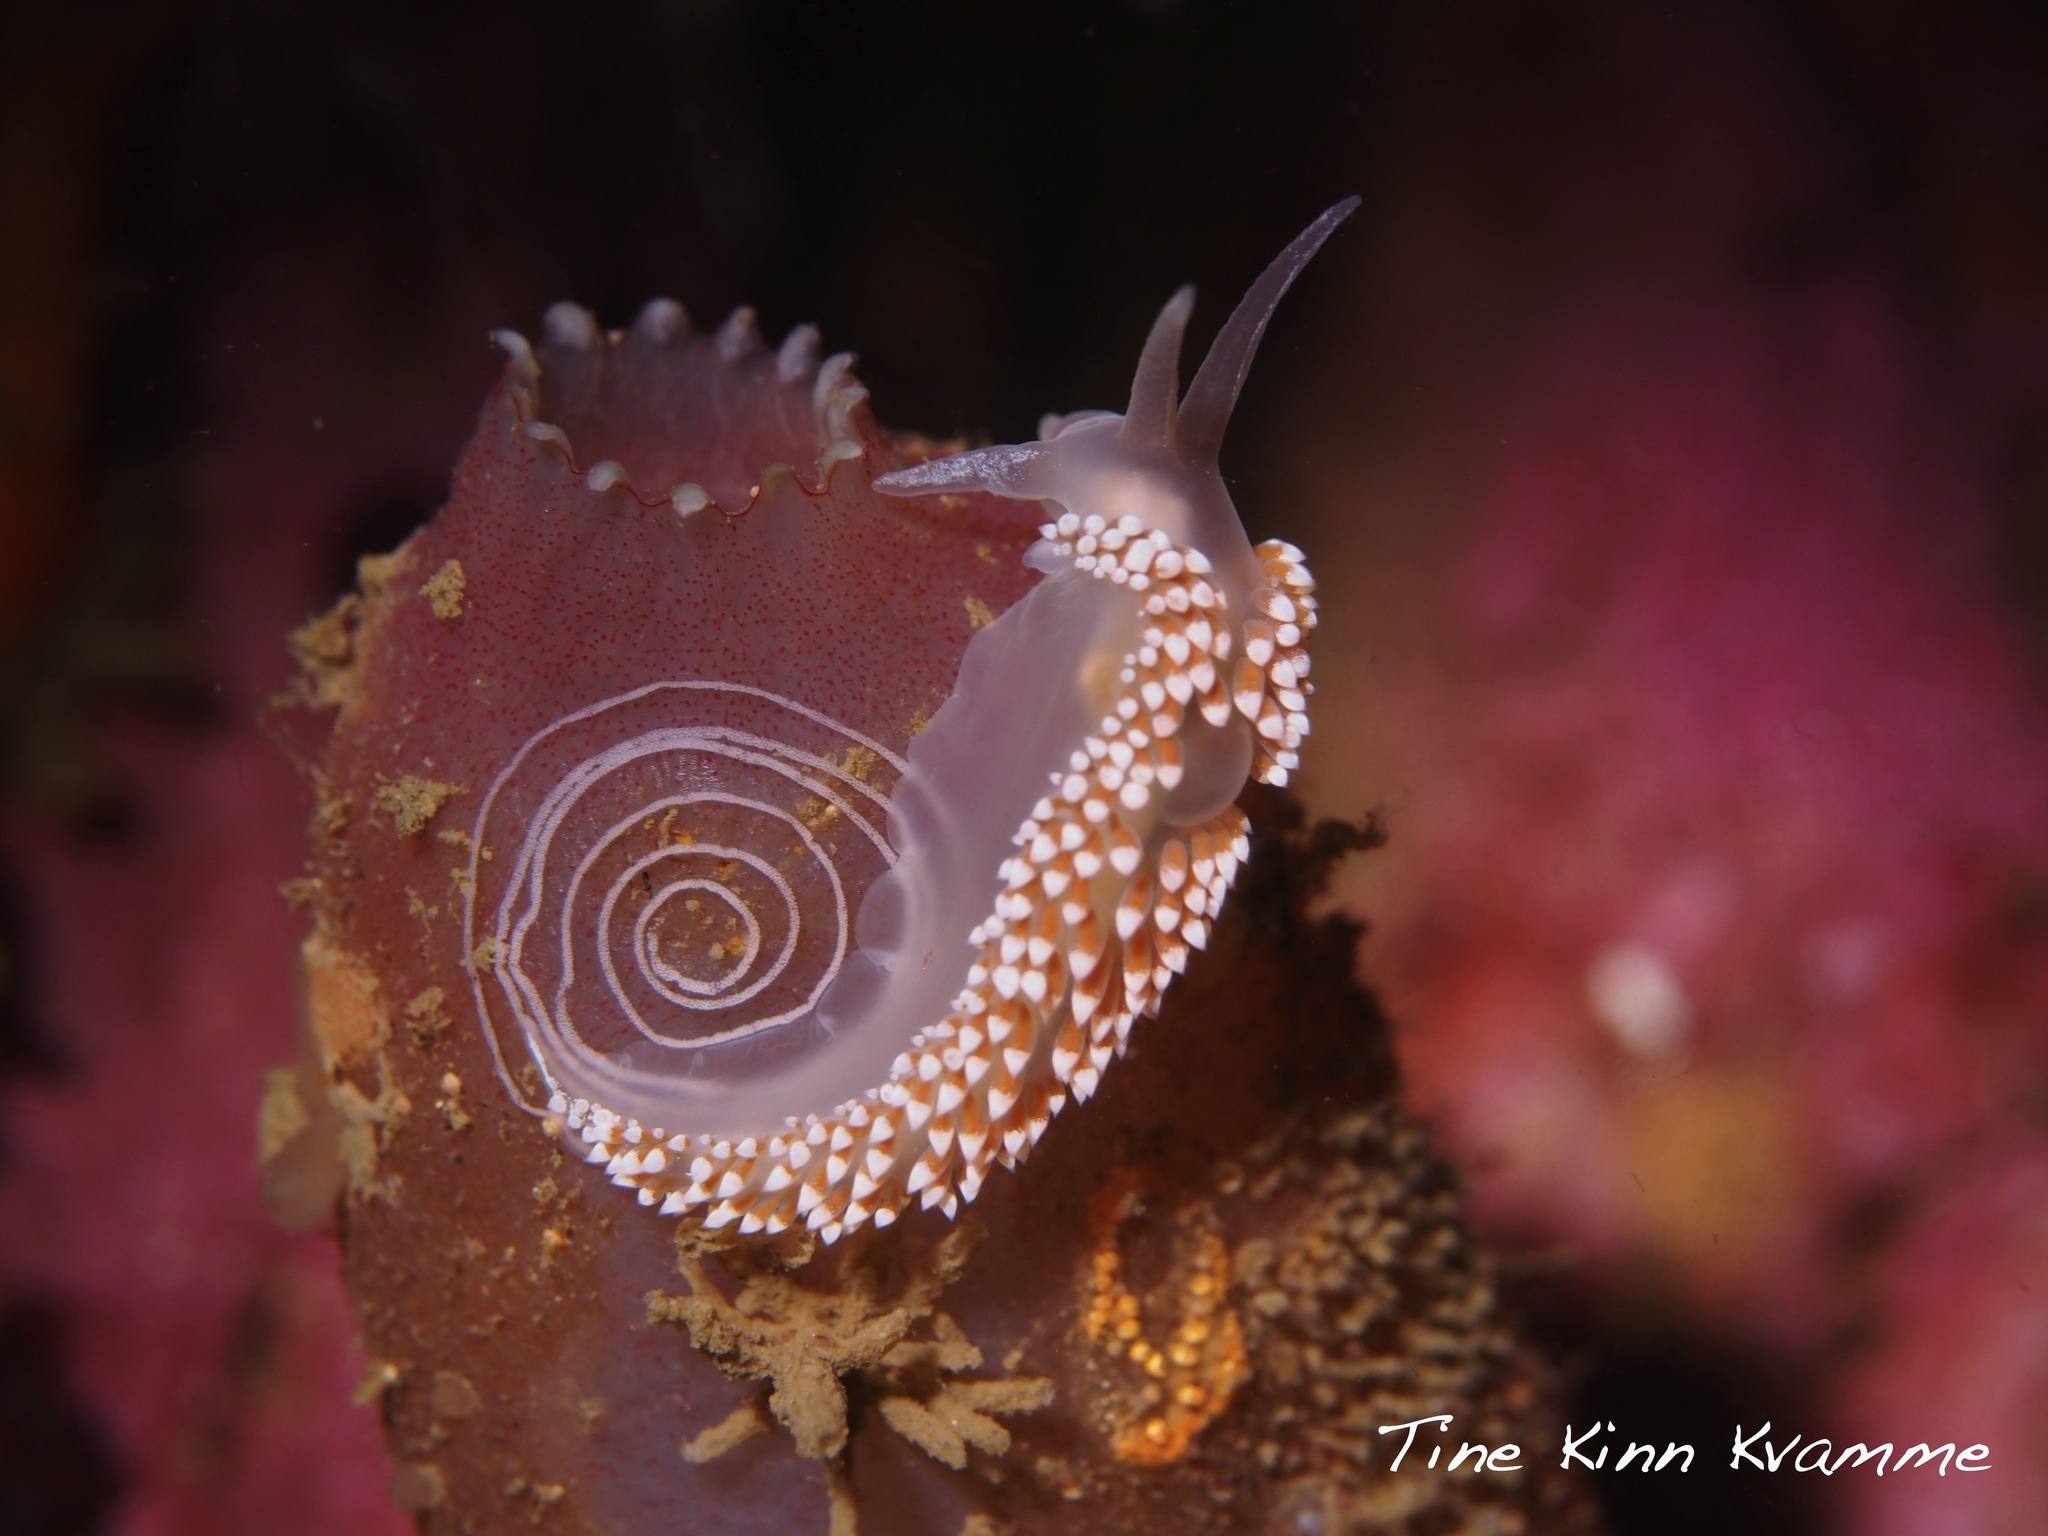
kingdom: Animalia
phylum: Mollusca
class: Gastropoda
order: Nudibranchia
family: Coryphellidae
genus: Coryphella
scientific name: Coryphella verrucosa
